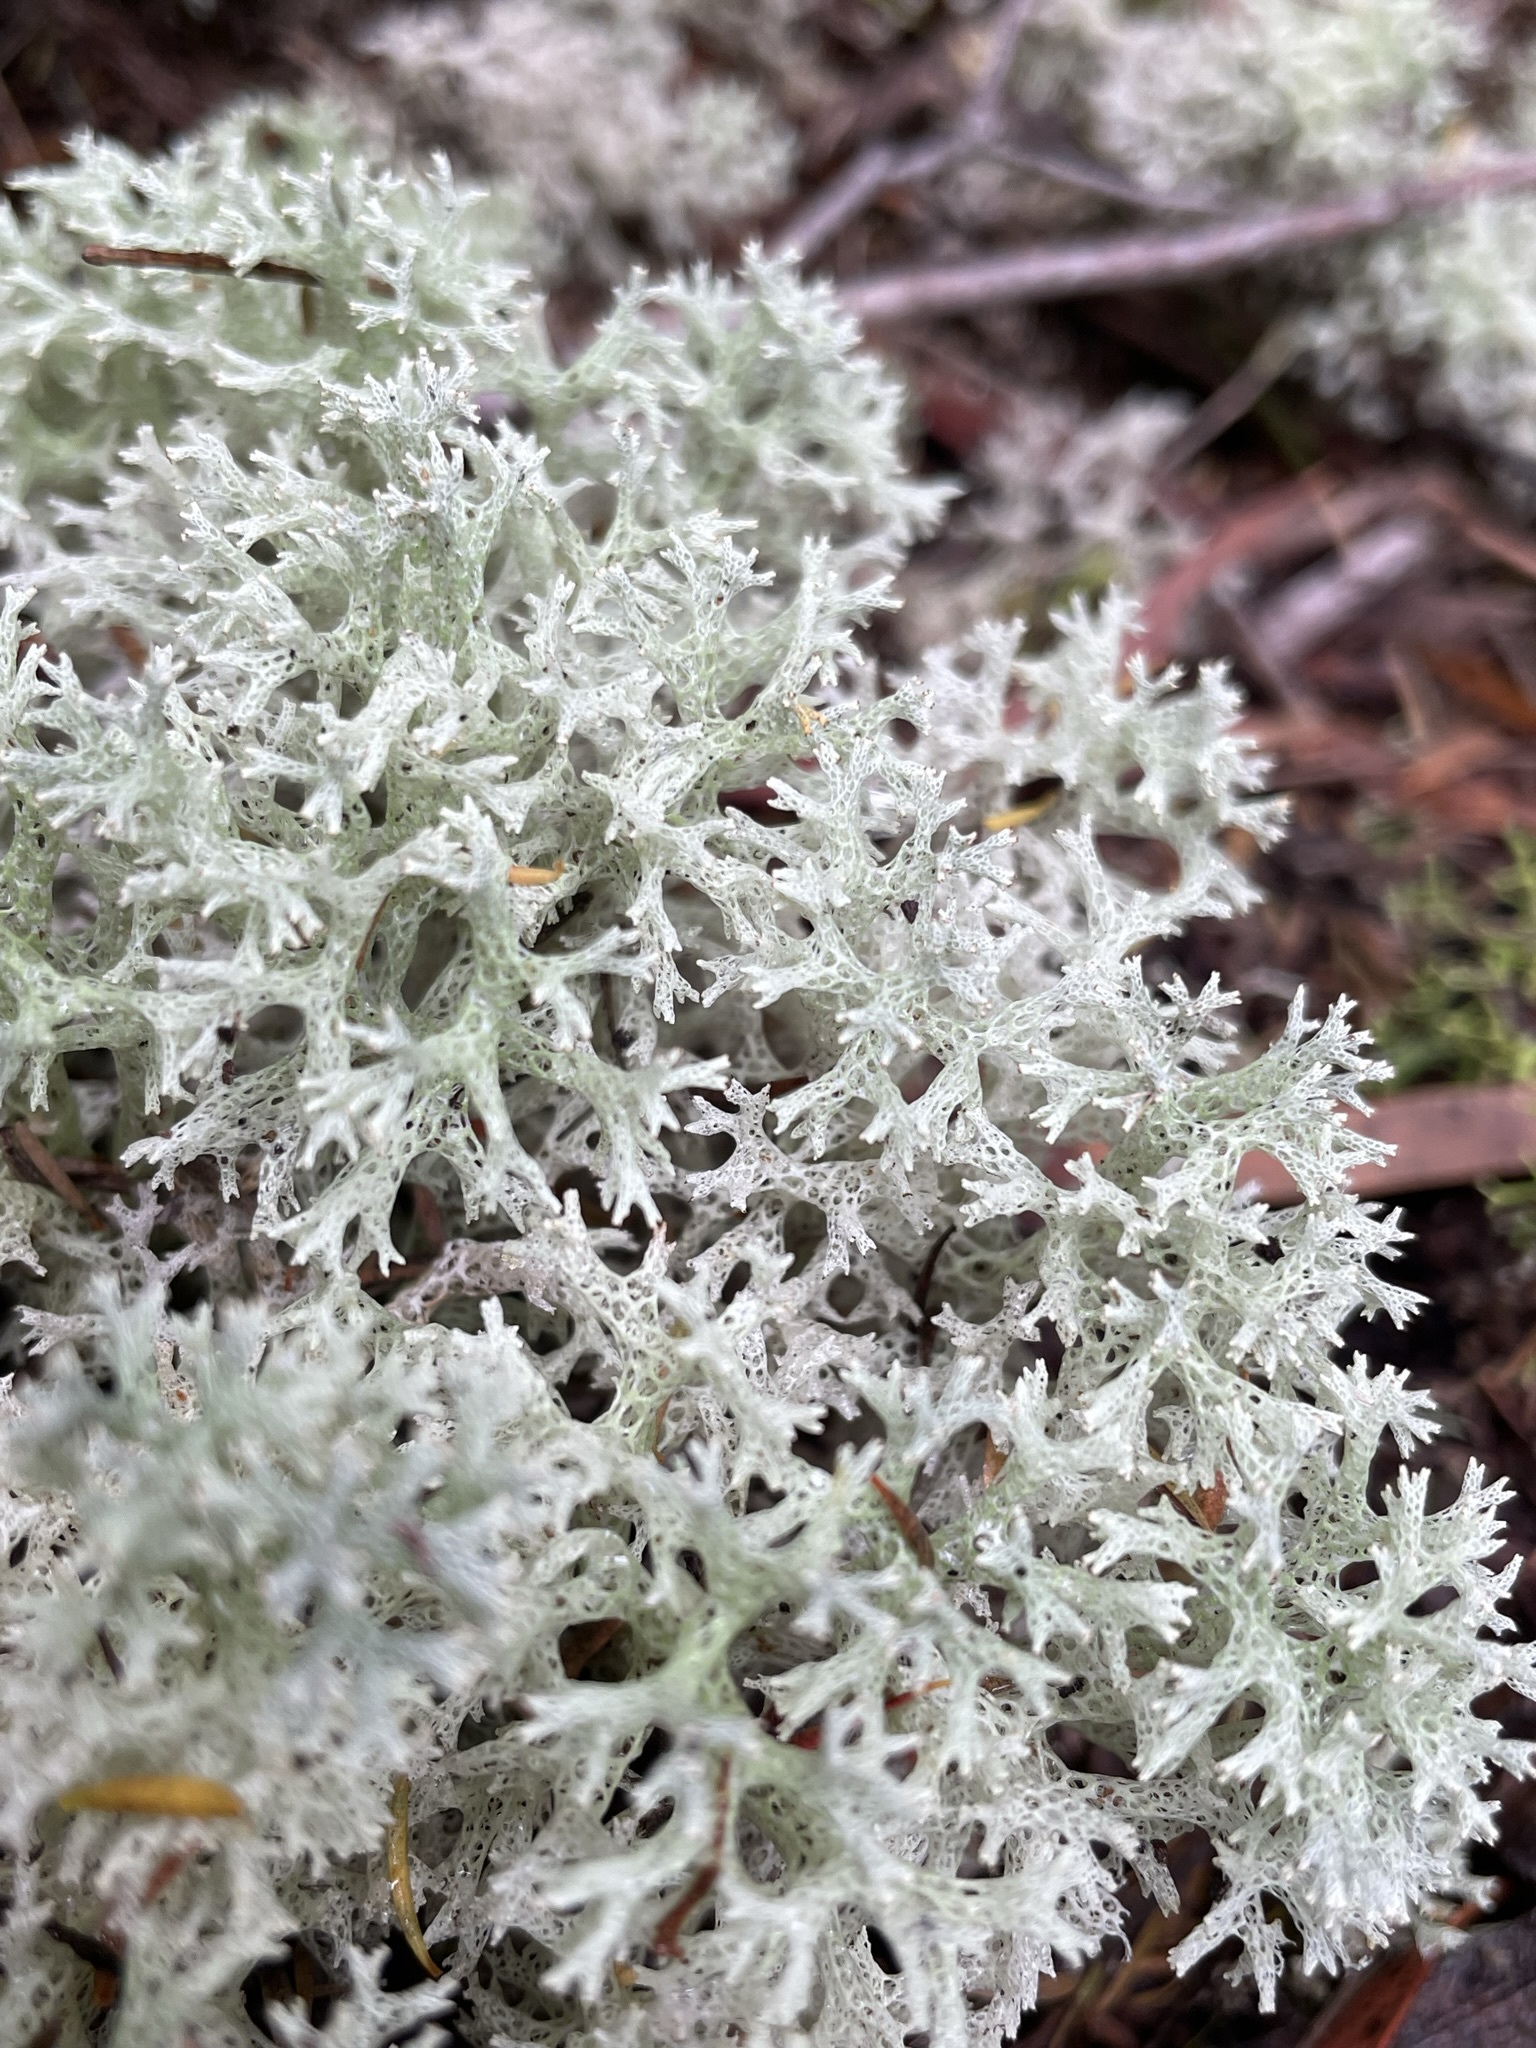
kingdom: Fungi
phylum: Ascomycota
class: Lecanoromycetes
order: Lecanorales
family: Cladoniaceae
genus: Pulchrocladia
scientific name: Pulchrocladia retipora
